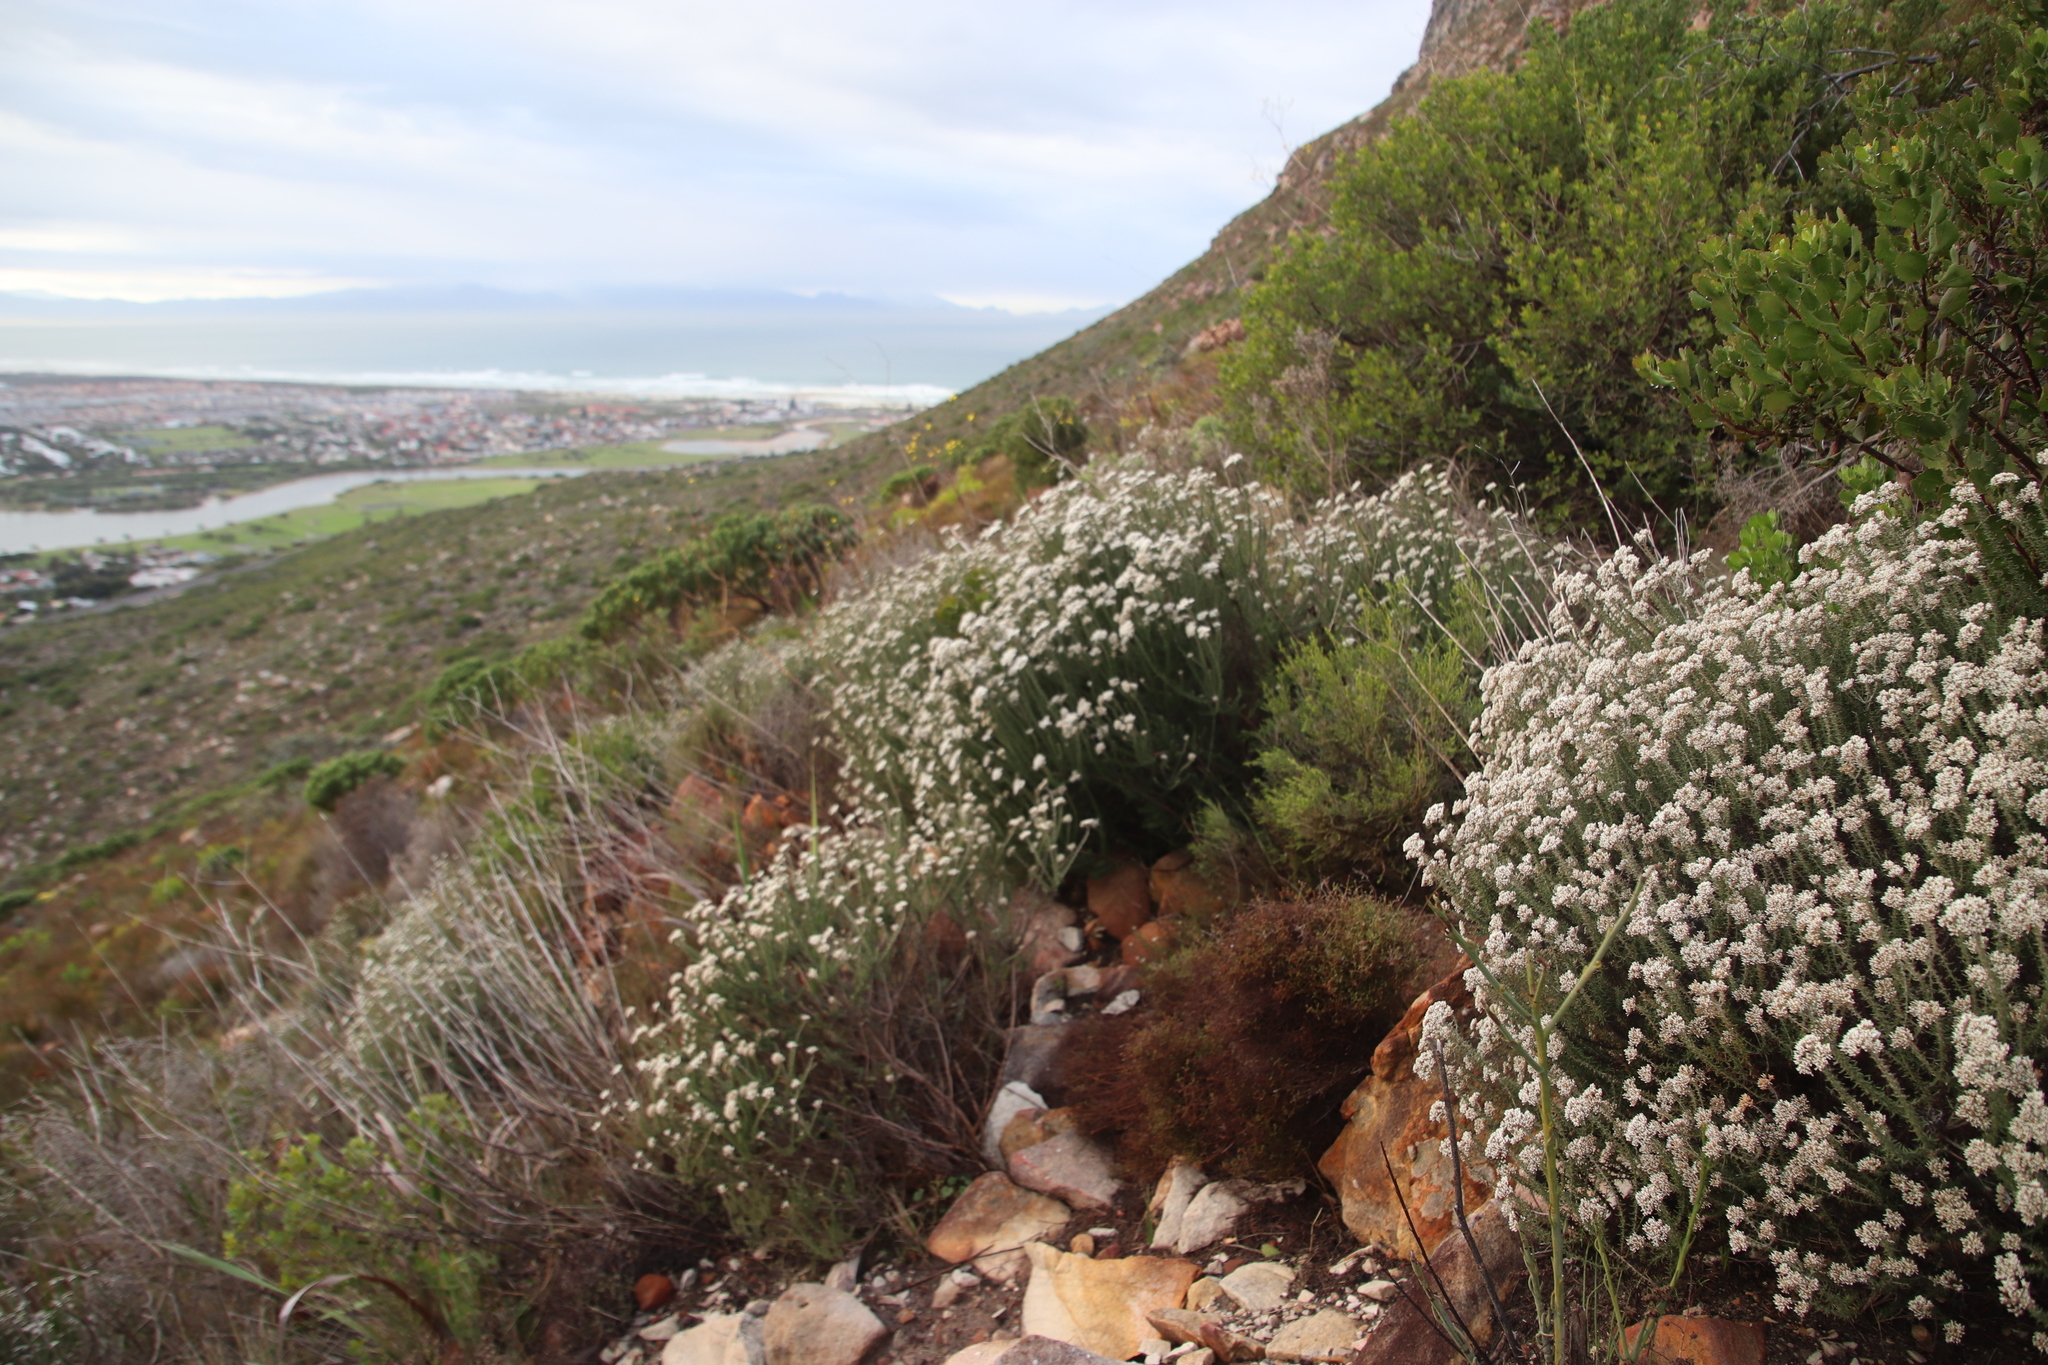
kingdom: Plantae
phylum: Tracheophyta
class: Magnoliopsida
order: Asterales
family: Asteraceae
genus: Metalasia
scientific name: Metalasia densa
